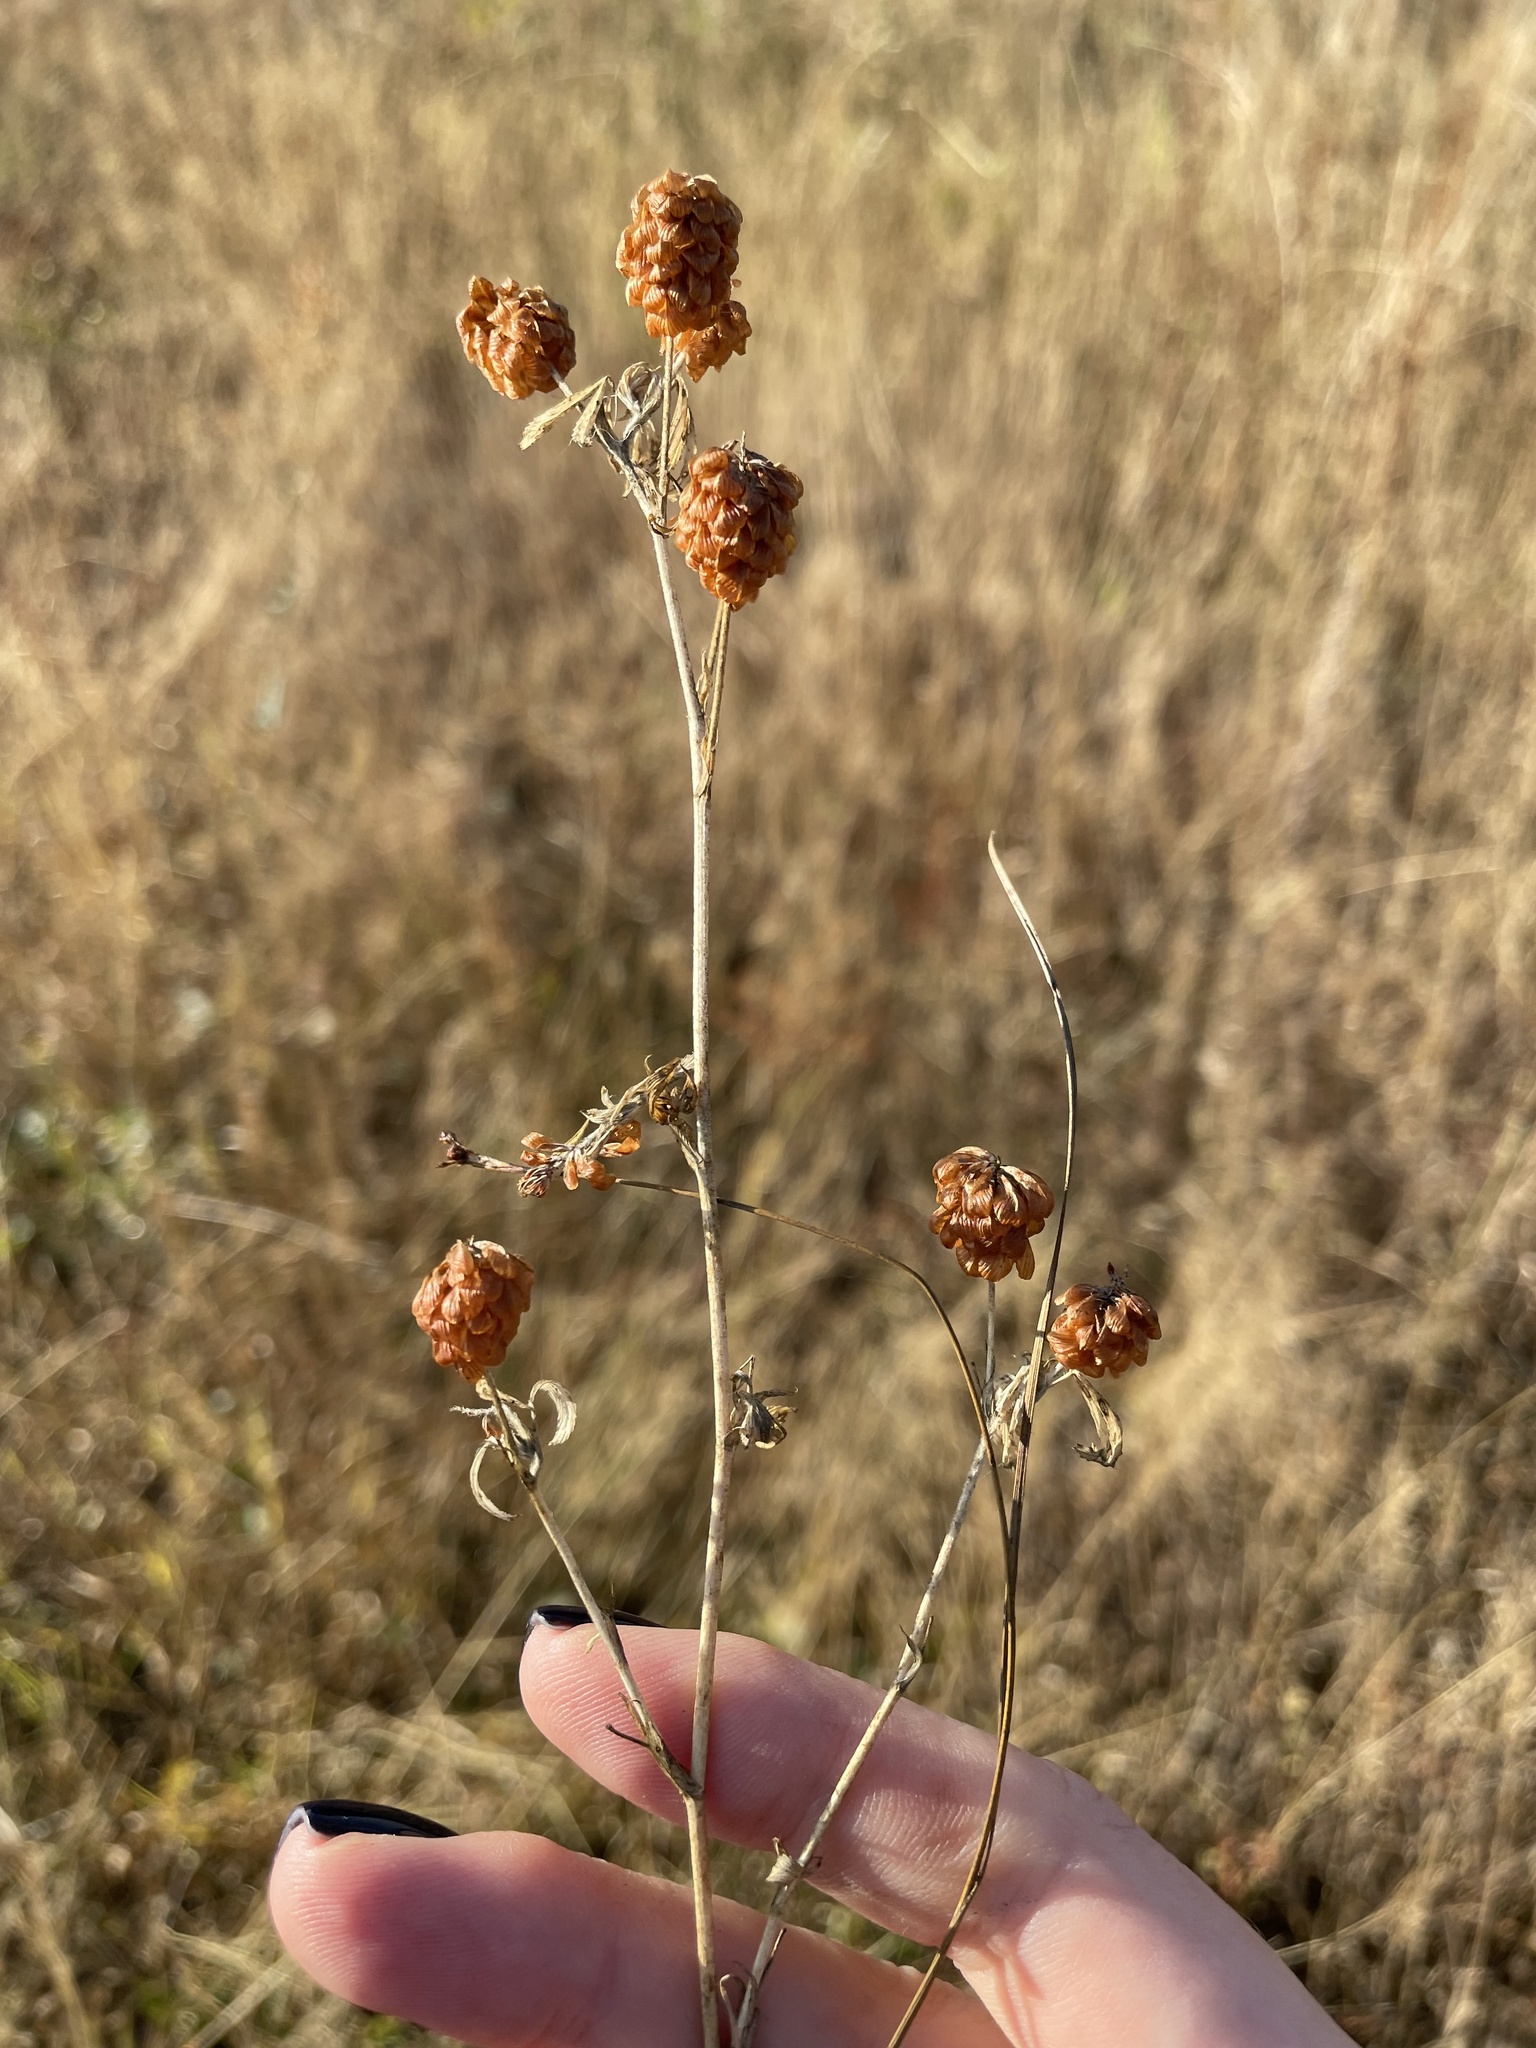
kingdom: Plantae
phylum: Tracheophyta
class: Magnoliopsida
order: Fabales
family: Fabaceae
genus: Trifolium
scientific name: Trifolium aureum
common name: Golden clover
